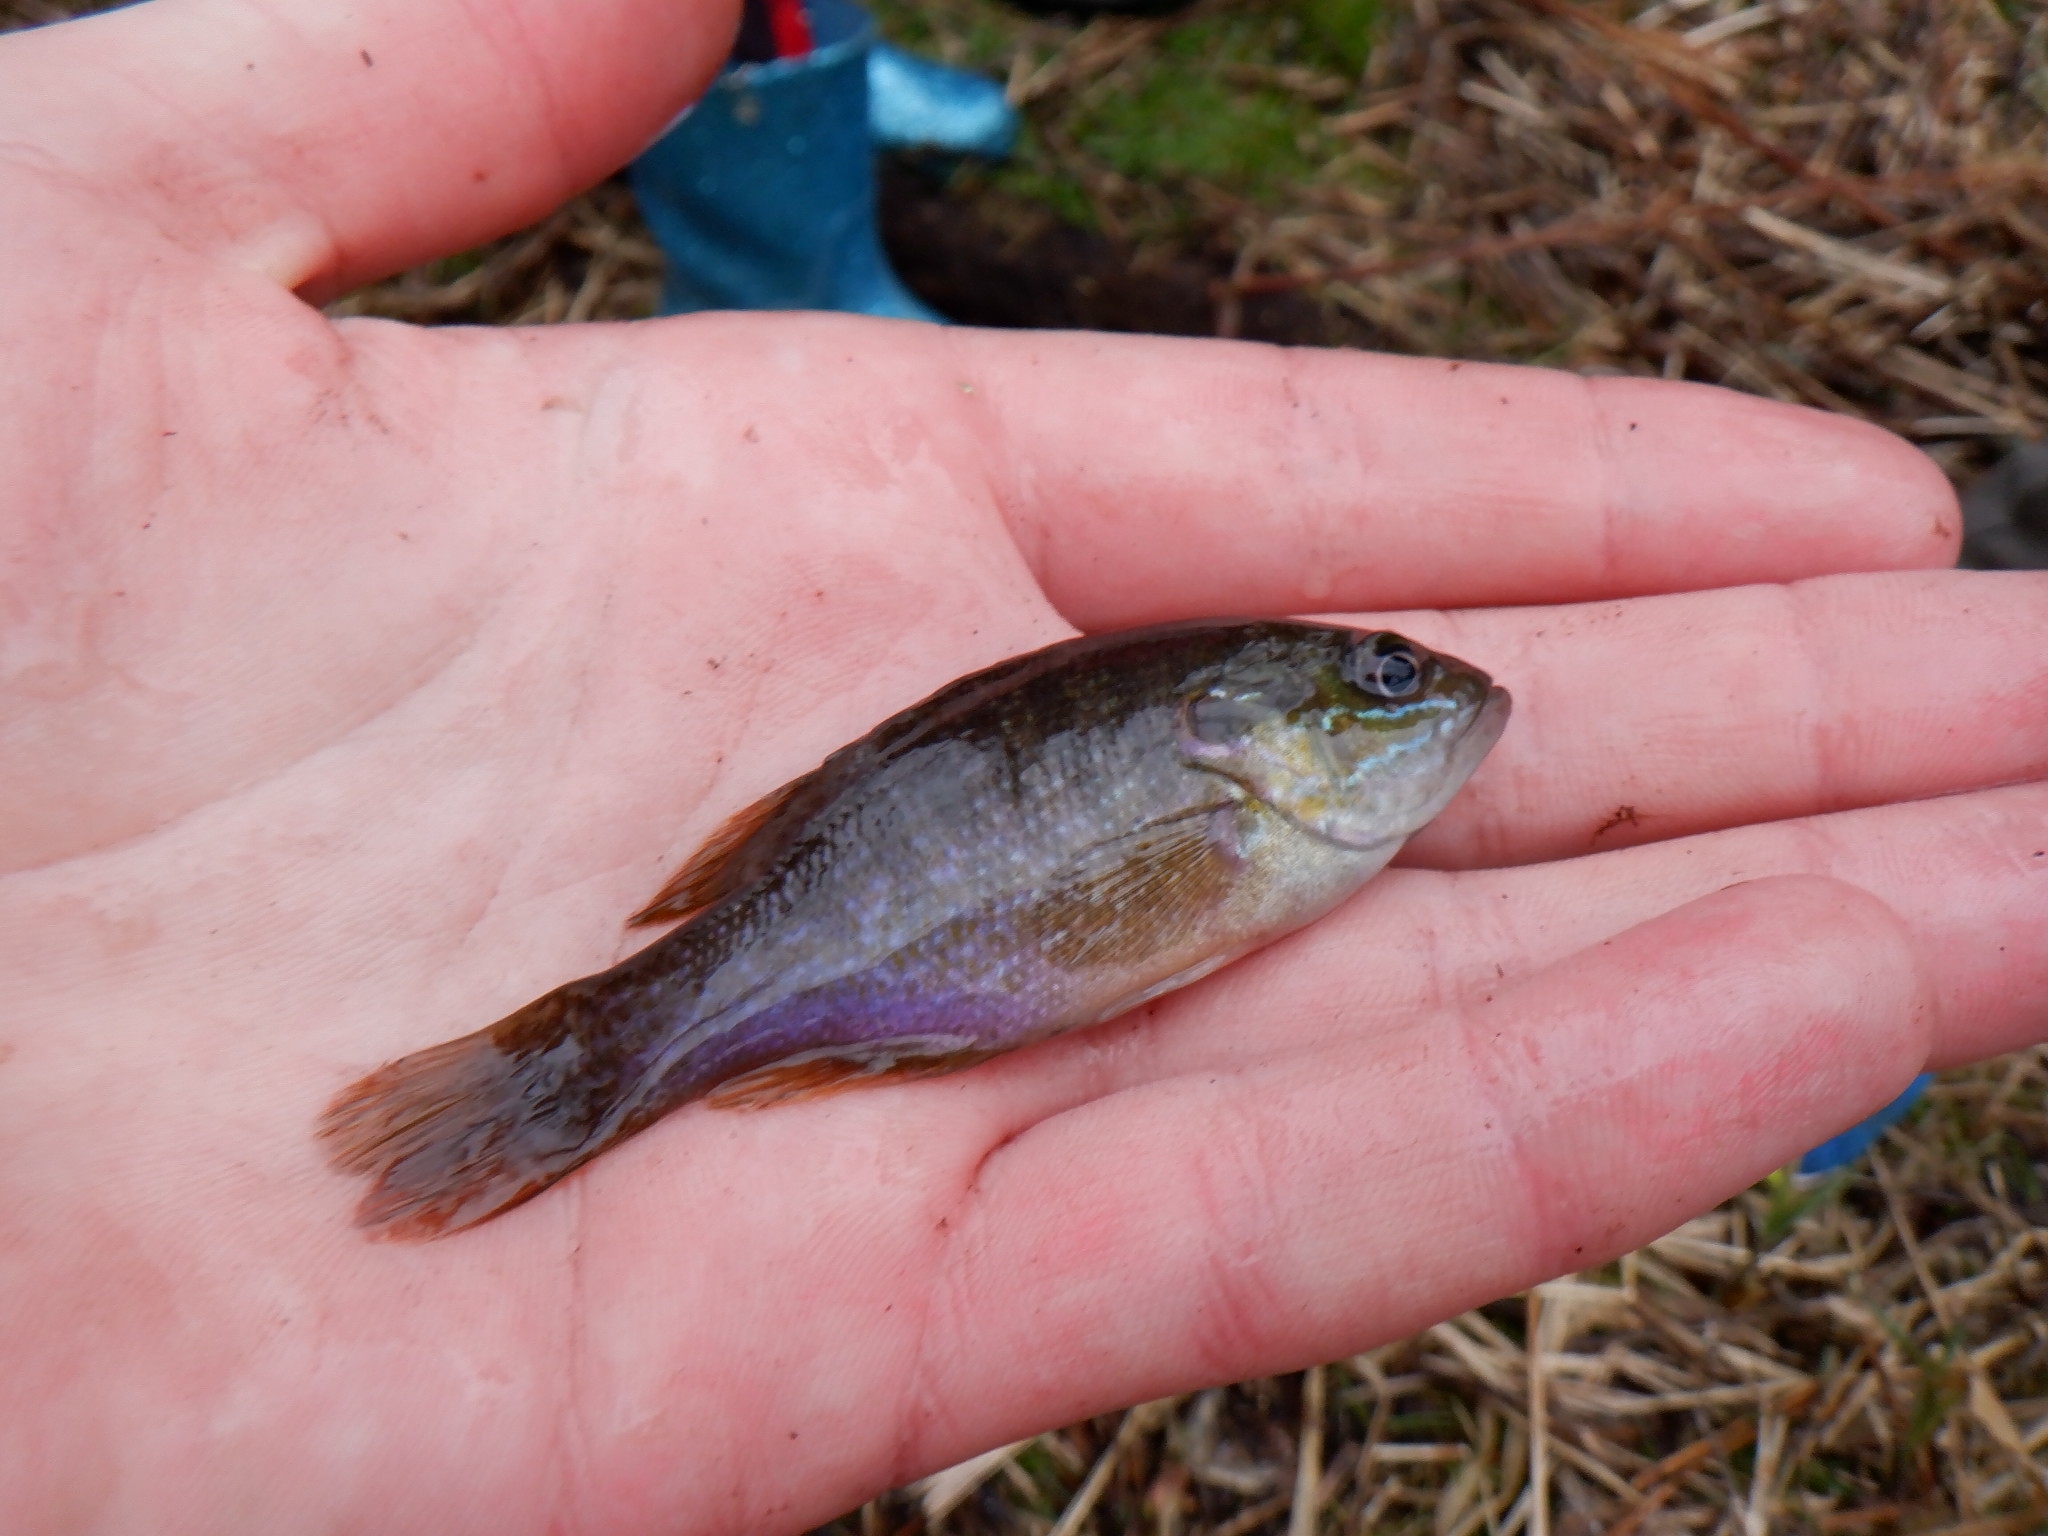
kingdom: Animalia
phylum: Chordata
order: Perciformes
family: Centrarchidae
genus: Lepomis
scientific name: Lepomis cyanellus
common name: Green sunfish
